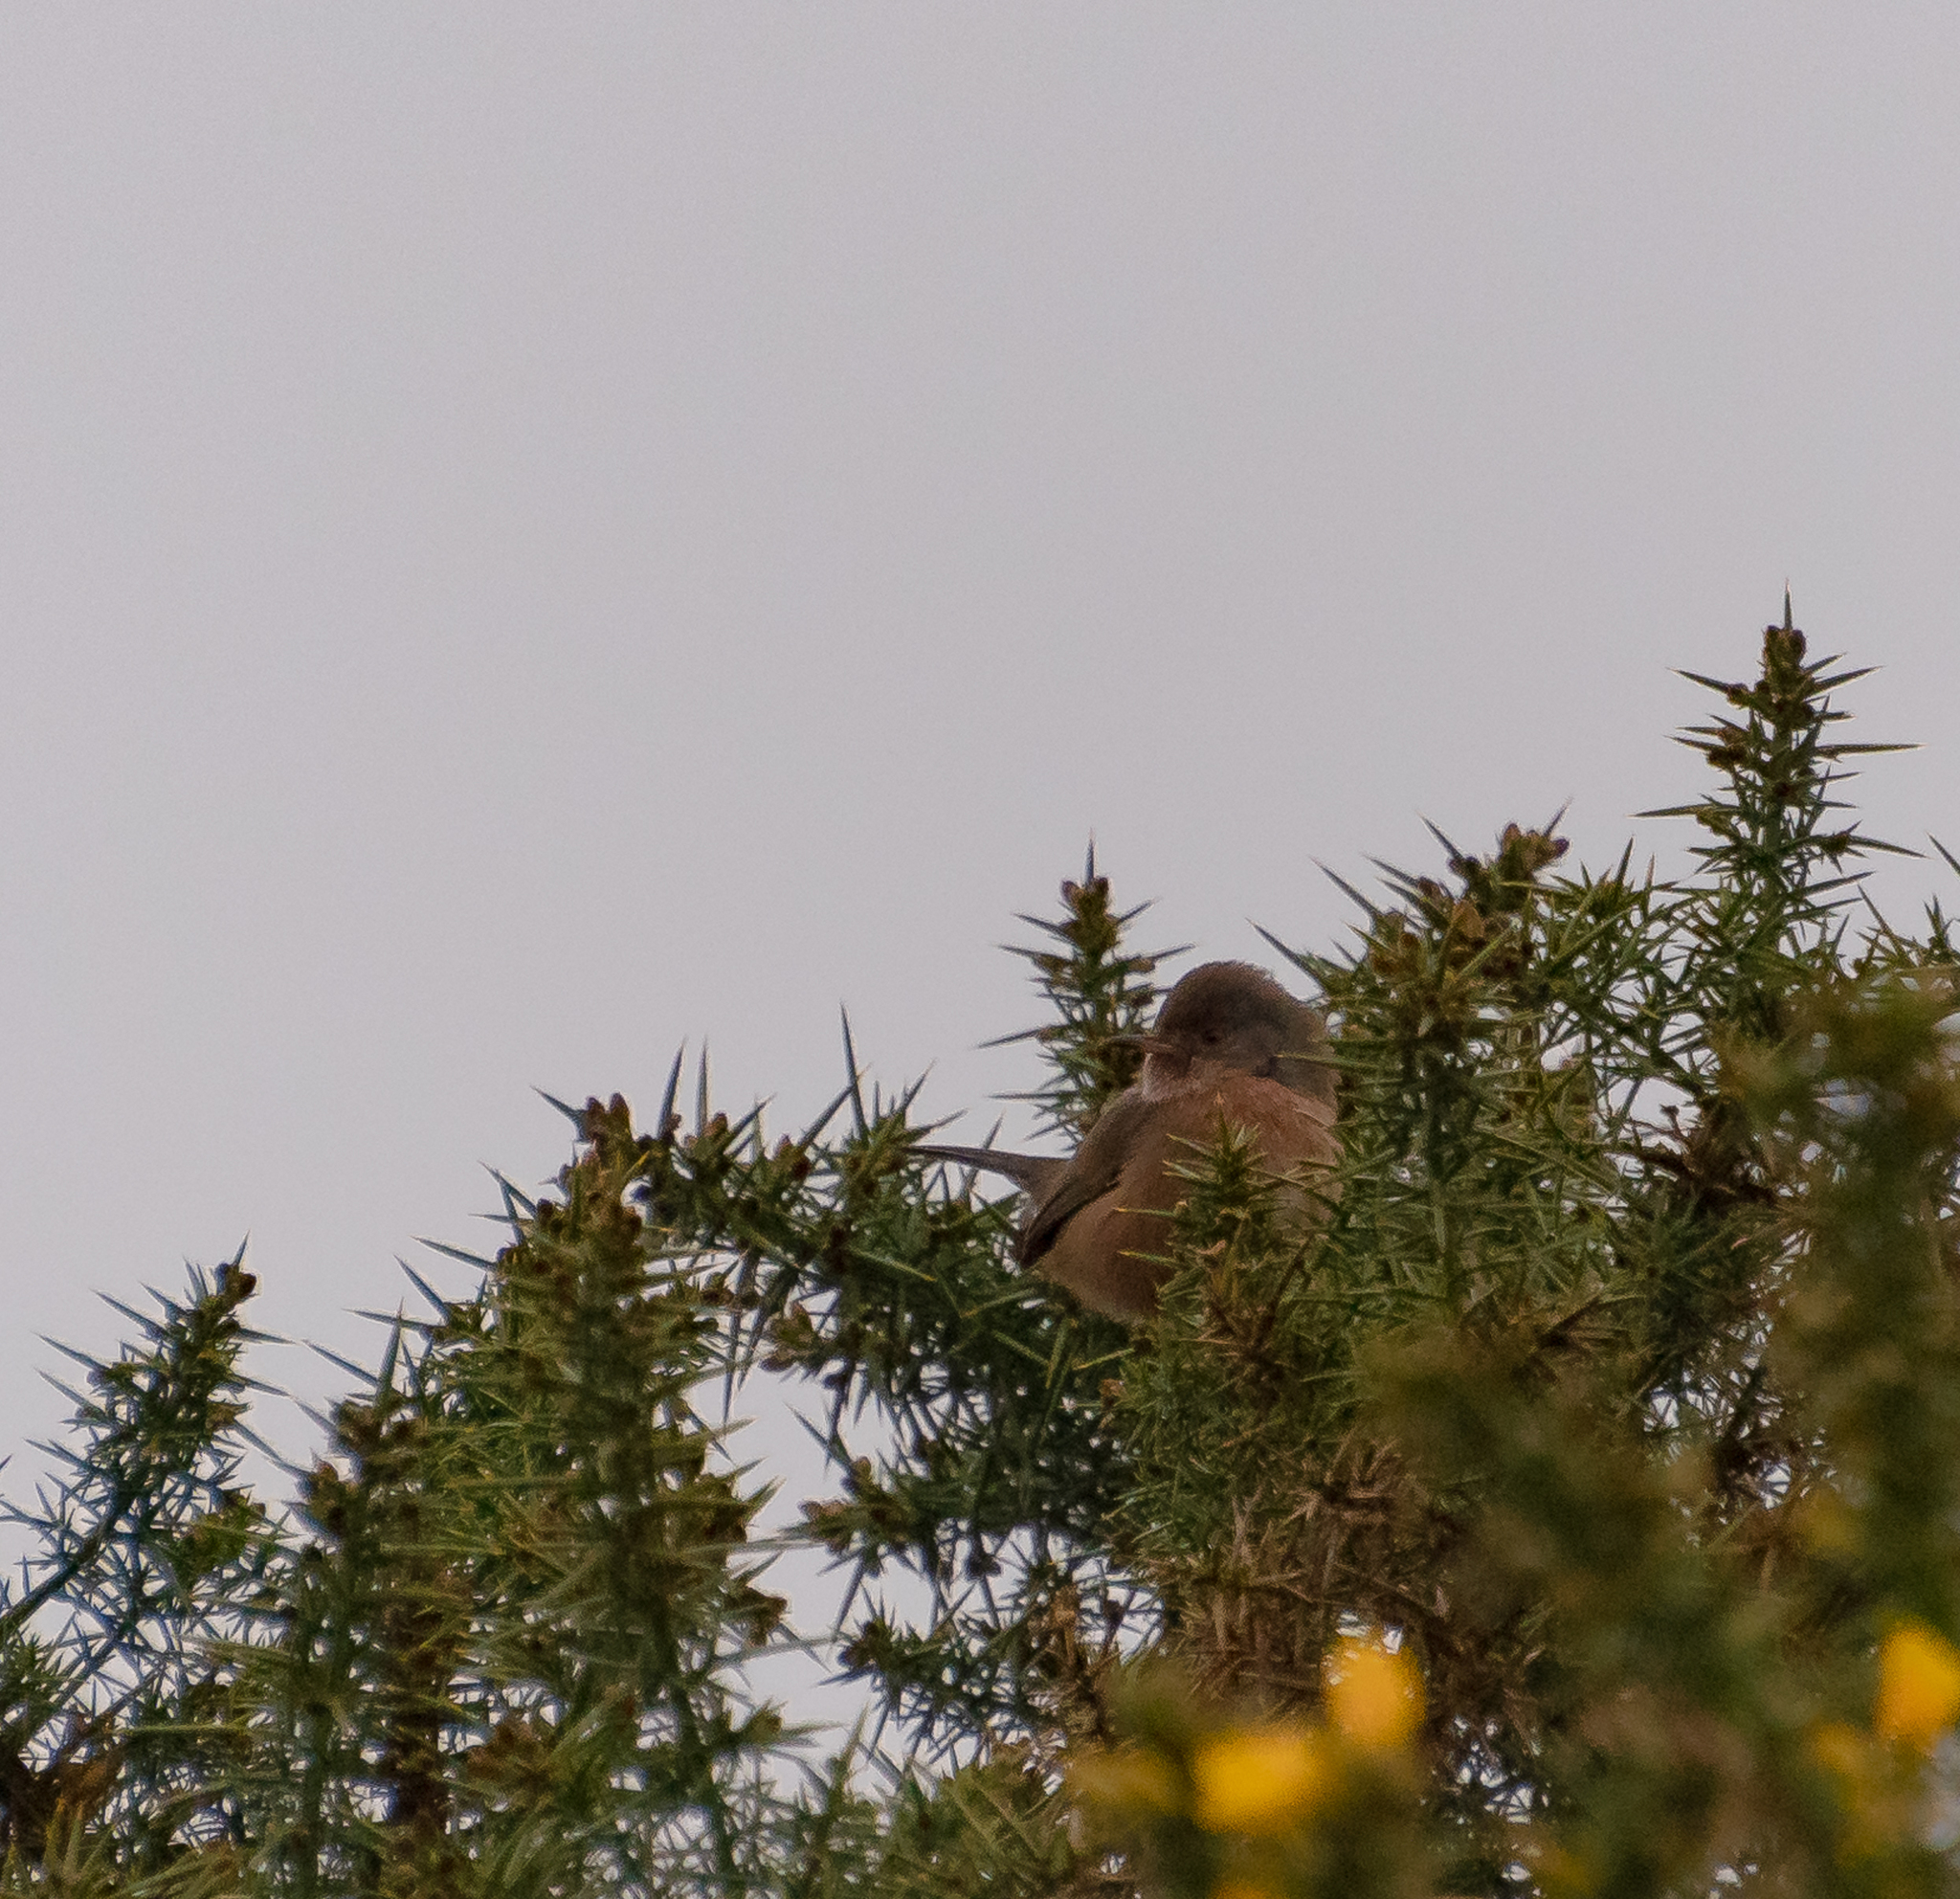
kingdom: Animalia
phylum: Chordata
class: Aves
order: Passeriformes
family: Sylviidae
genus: Sylvia
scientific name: Sylvia undata
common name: Dartford warbler
